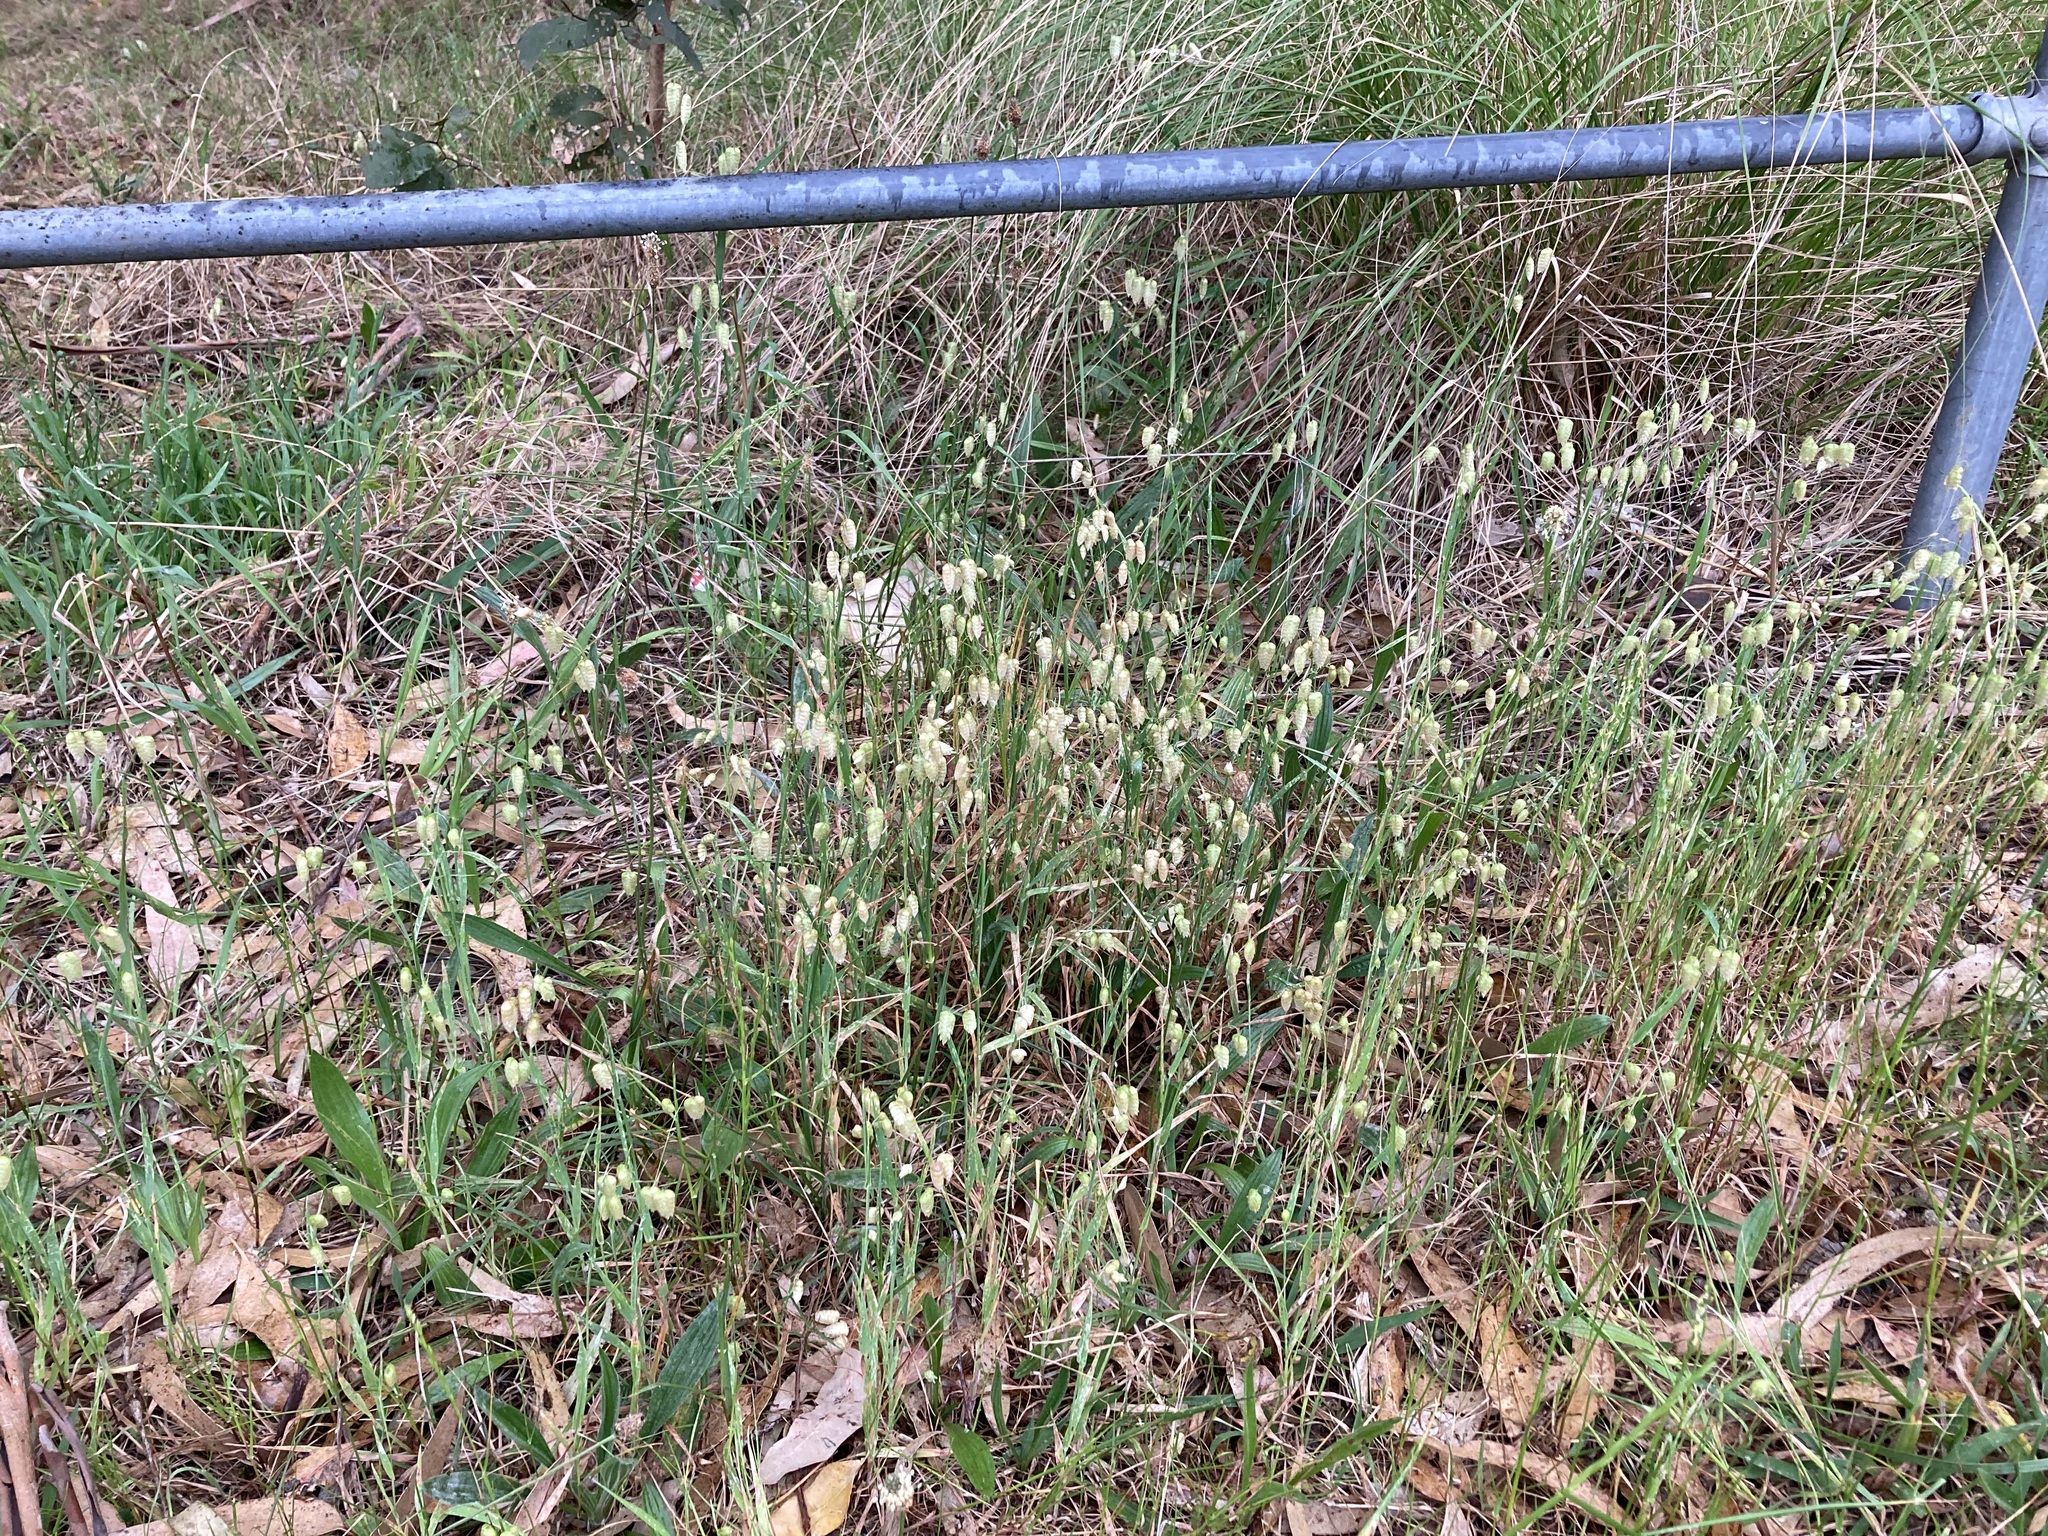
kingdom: Plantae
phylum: Tracheophyta
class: Liliopsida
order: Poales
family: Poaceae
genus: Briza
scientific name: Briza maxima
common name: Big quakinggrass
